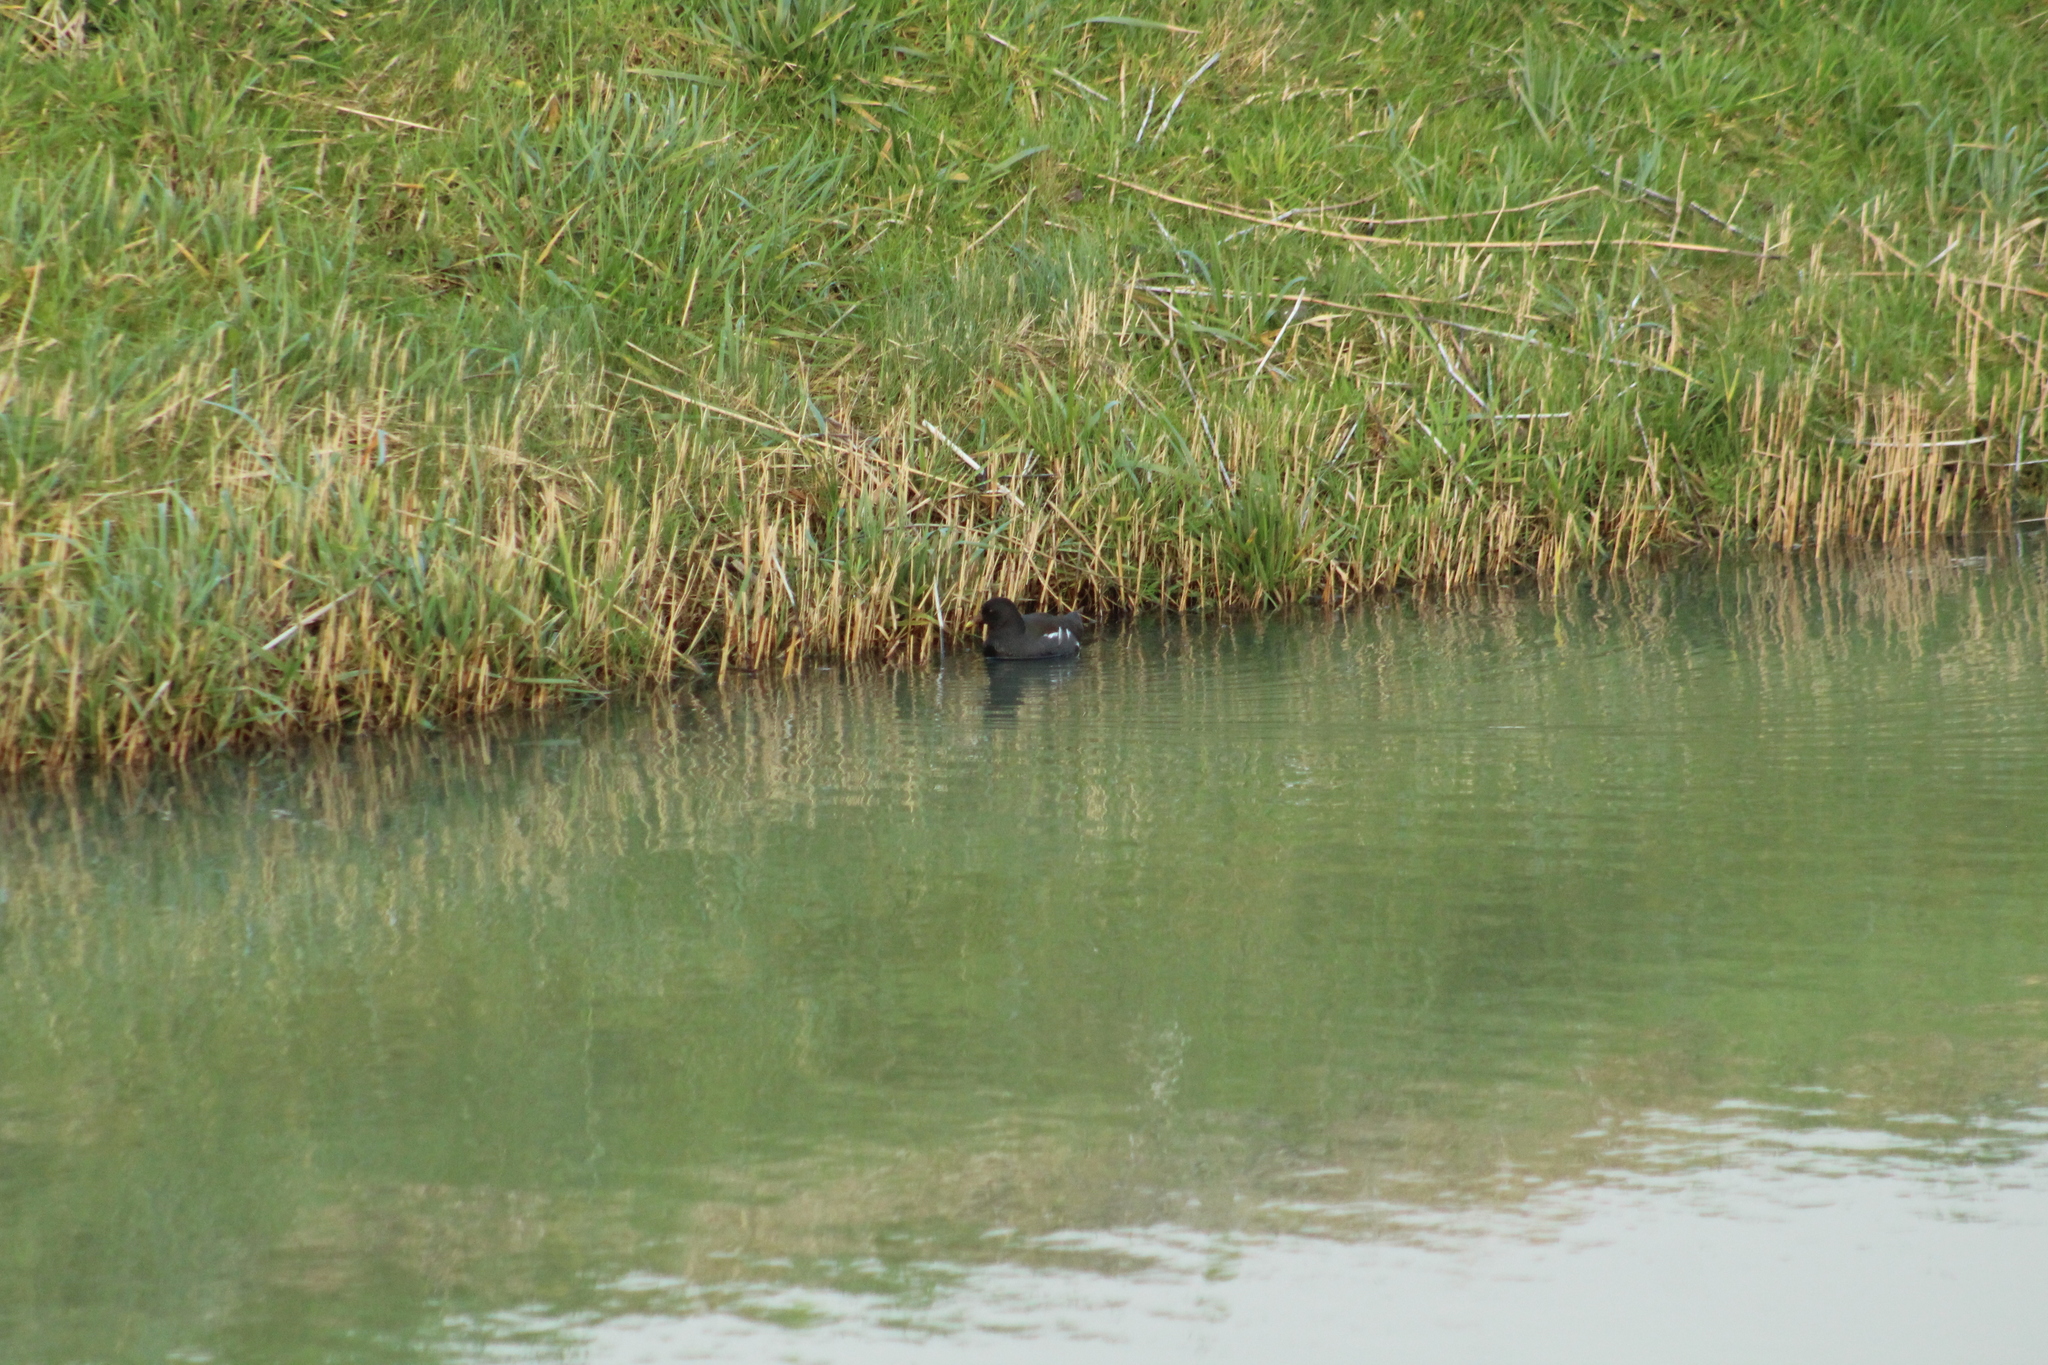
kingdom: Animalia
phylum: Chordata
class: Aves
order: Gruiformes
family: Rallidae
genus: Gallinula
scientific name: Gallinula chloropus
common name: Common moorhen
